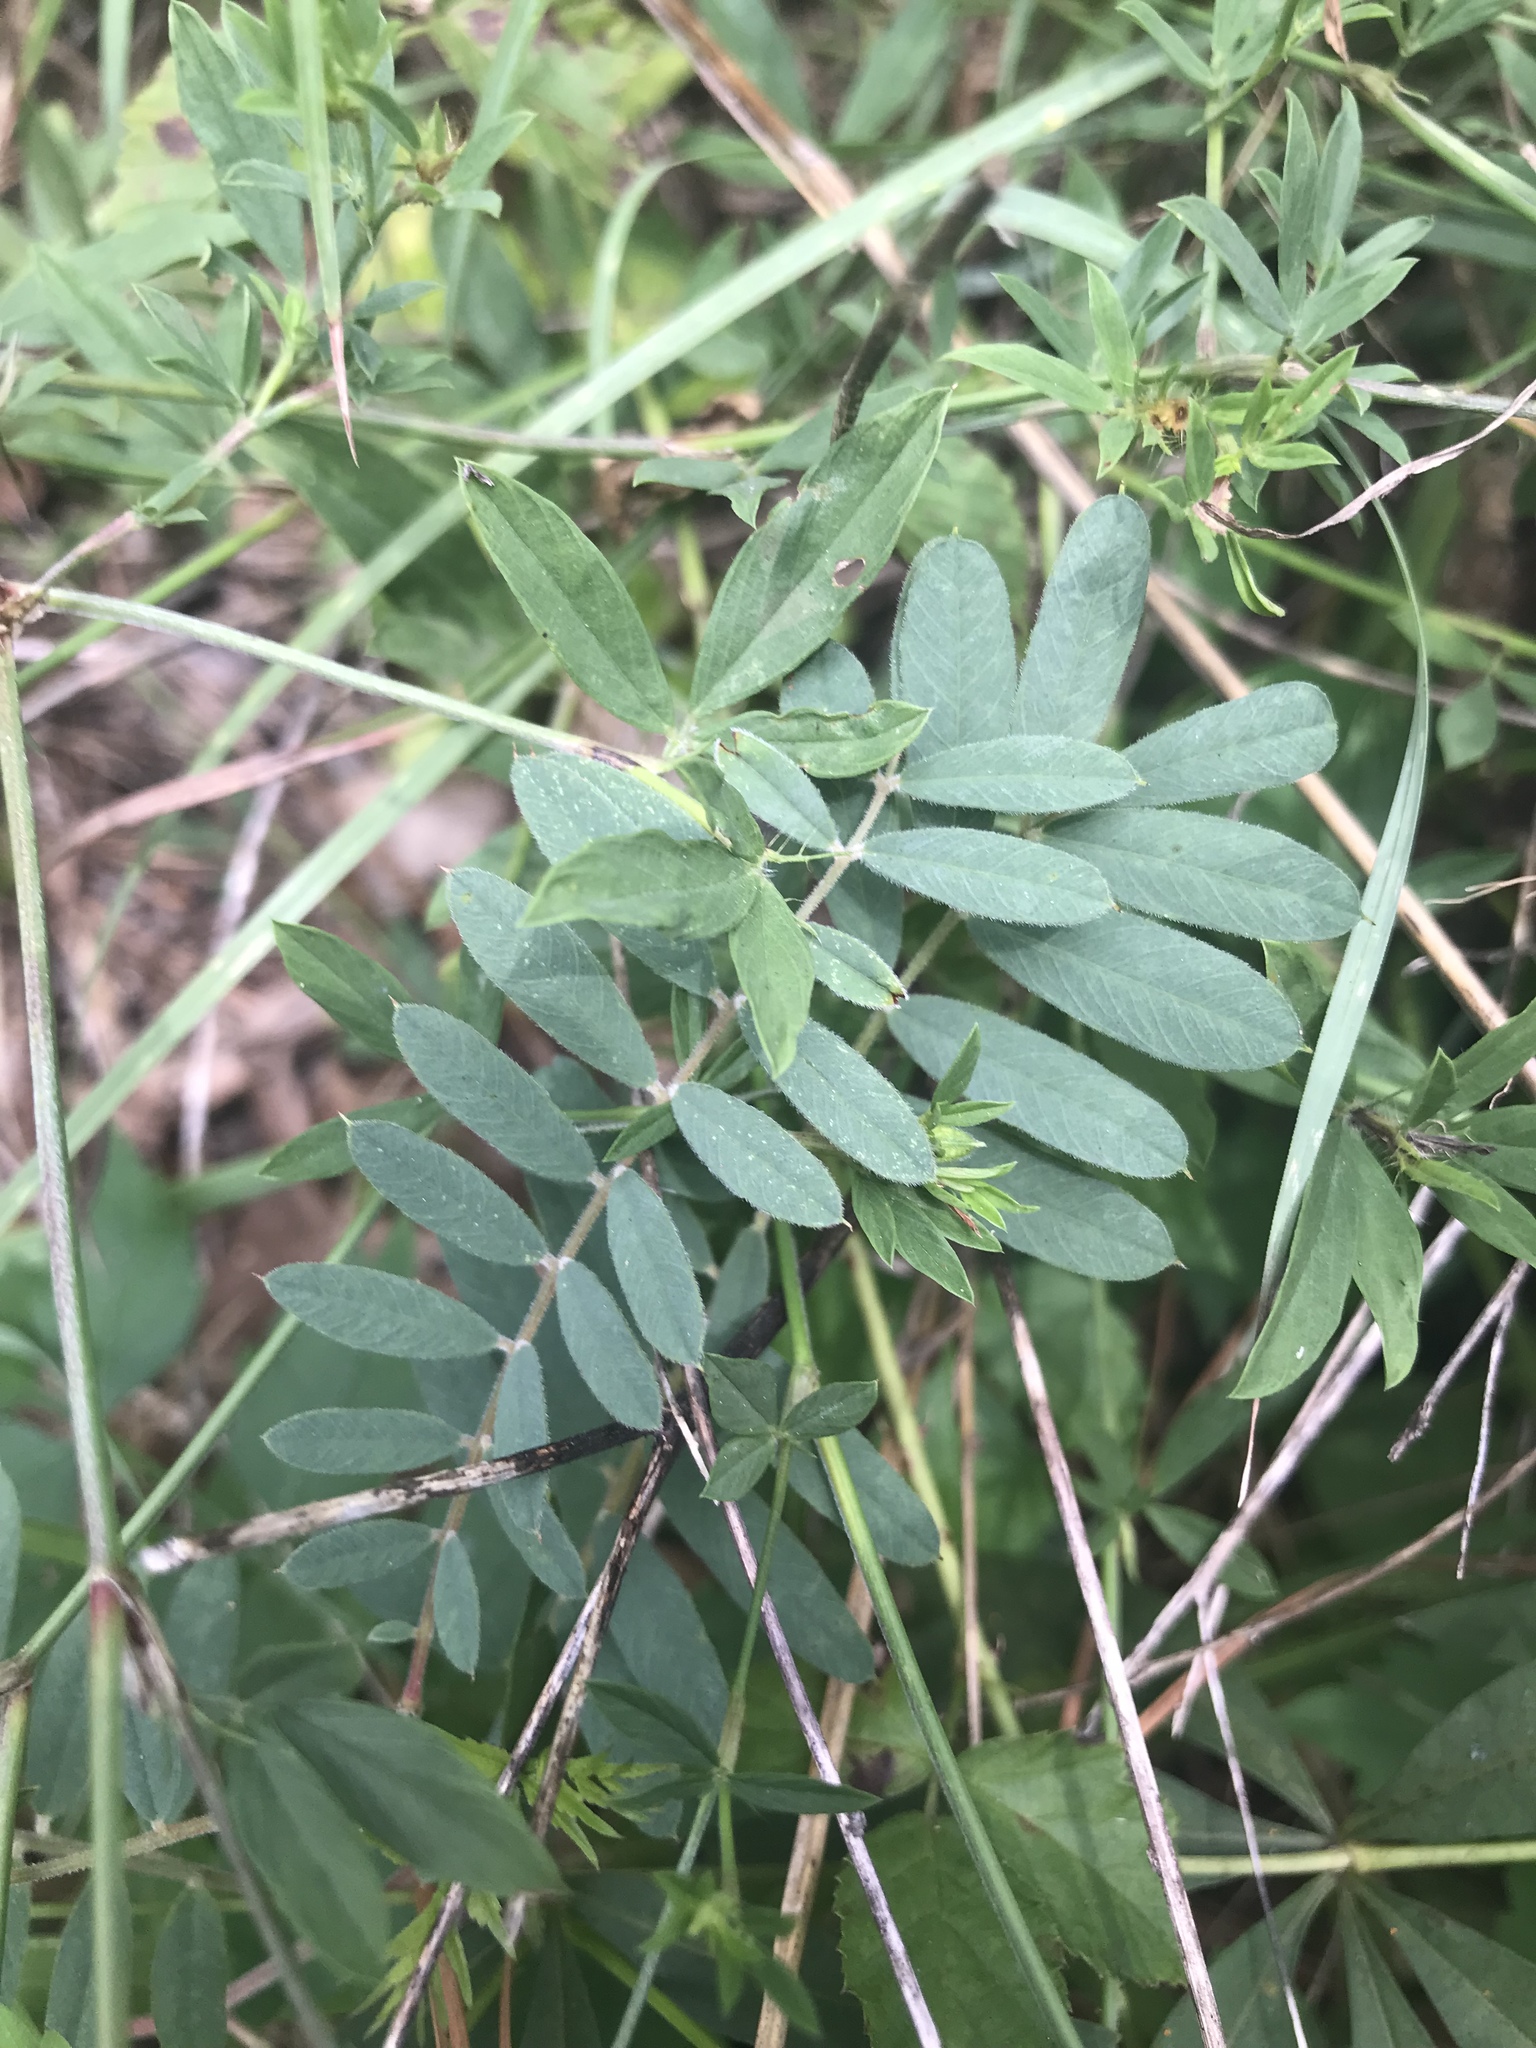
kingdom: Plantae
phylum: Tracheophyta
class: Magnoliopsida
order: Fabales
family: Fabaceae
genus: Tephrosia
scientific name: Tephrosia virginiana
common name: Rabbit-pea
